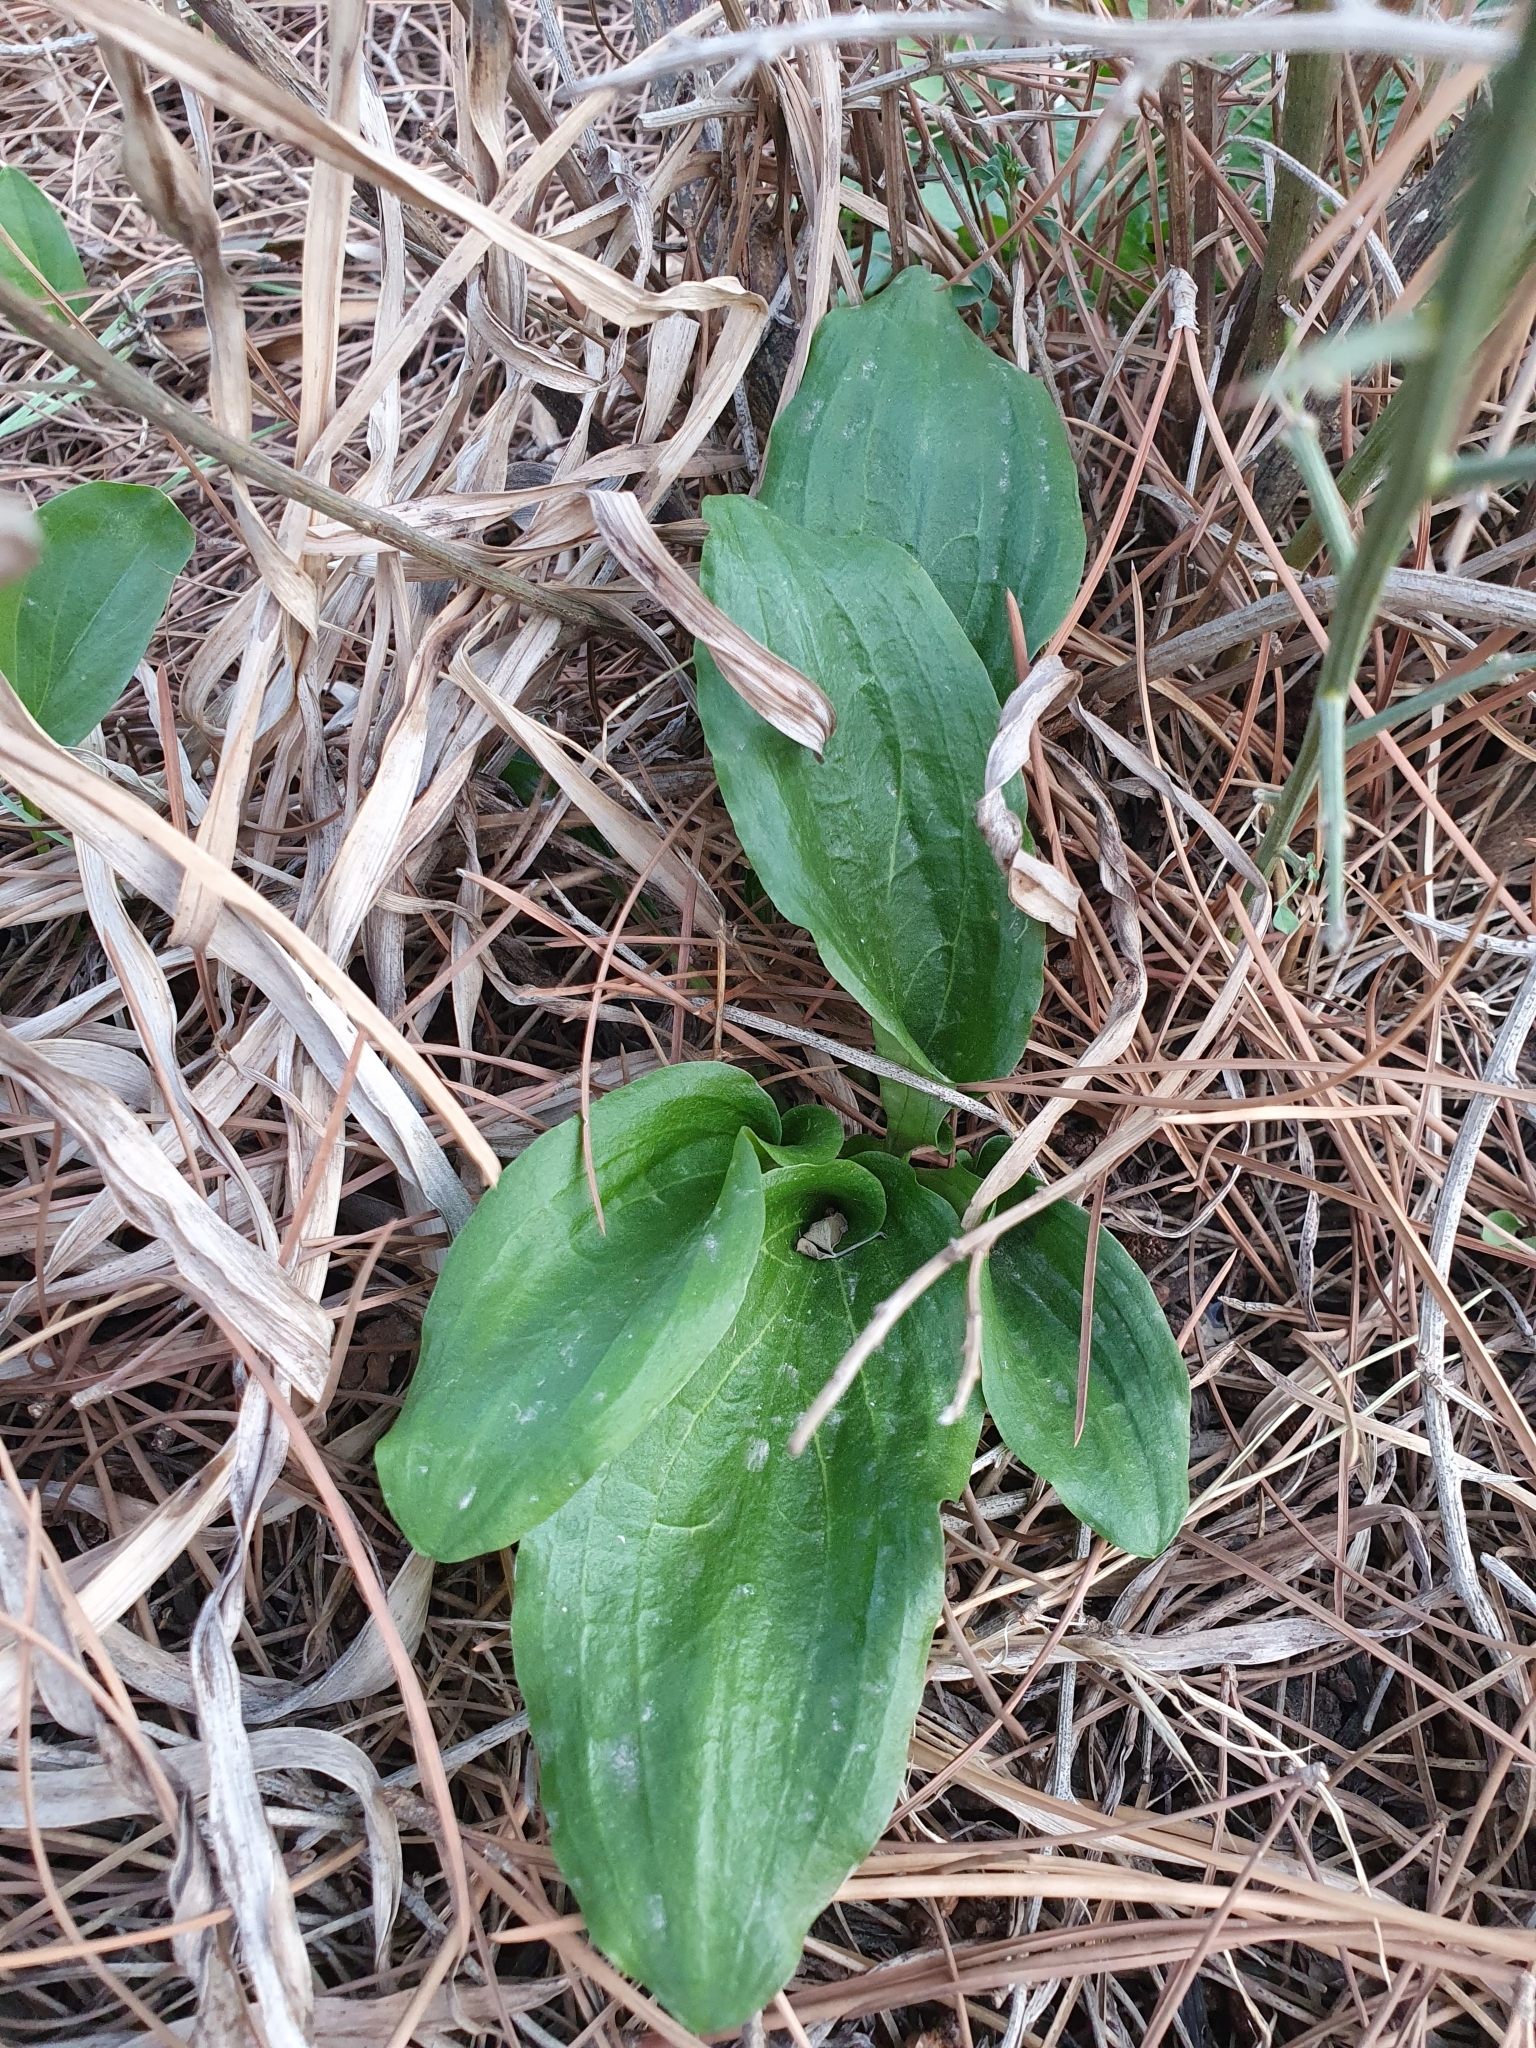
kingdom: Plantae
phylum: Tracheophyta
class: Liliopsida
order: Alismatales
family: Araceae
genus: Ambrosina
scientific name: Ambrosina bassii
